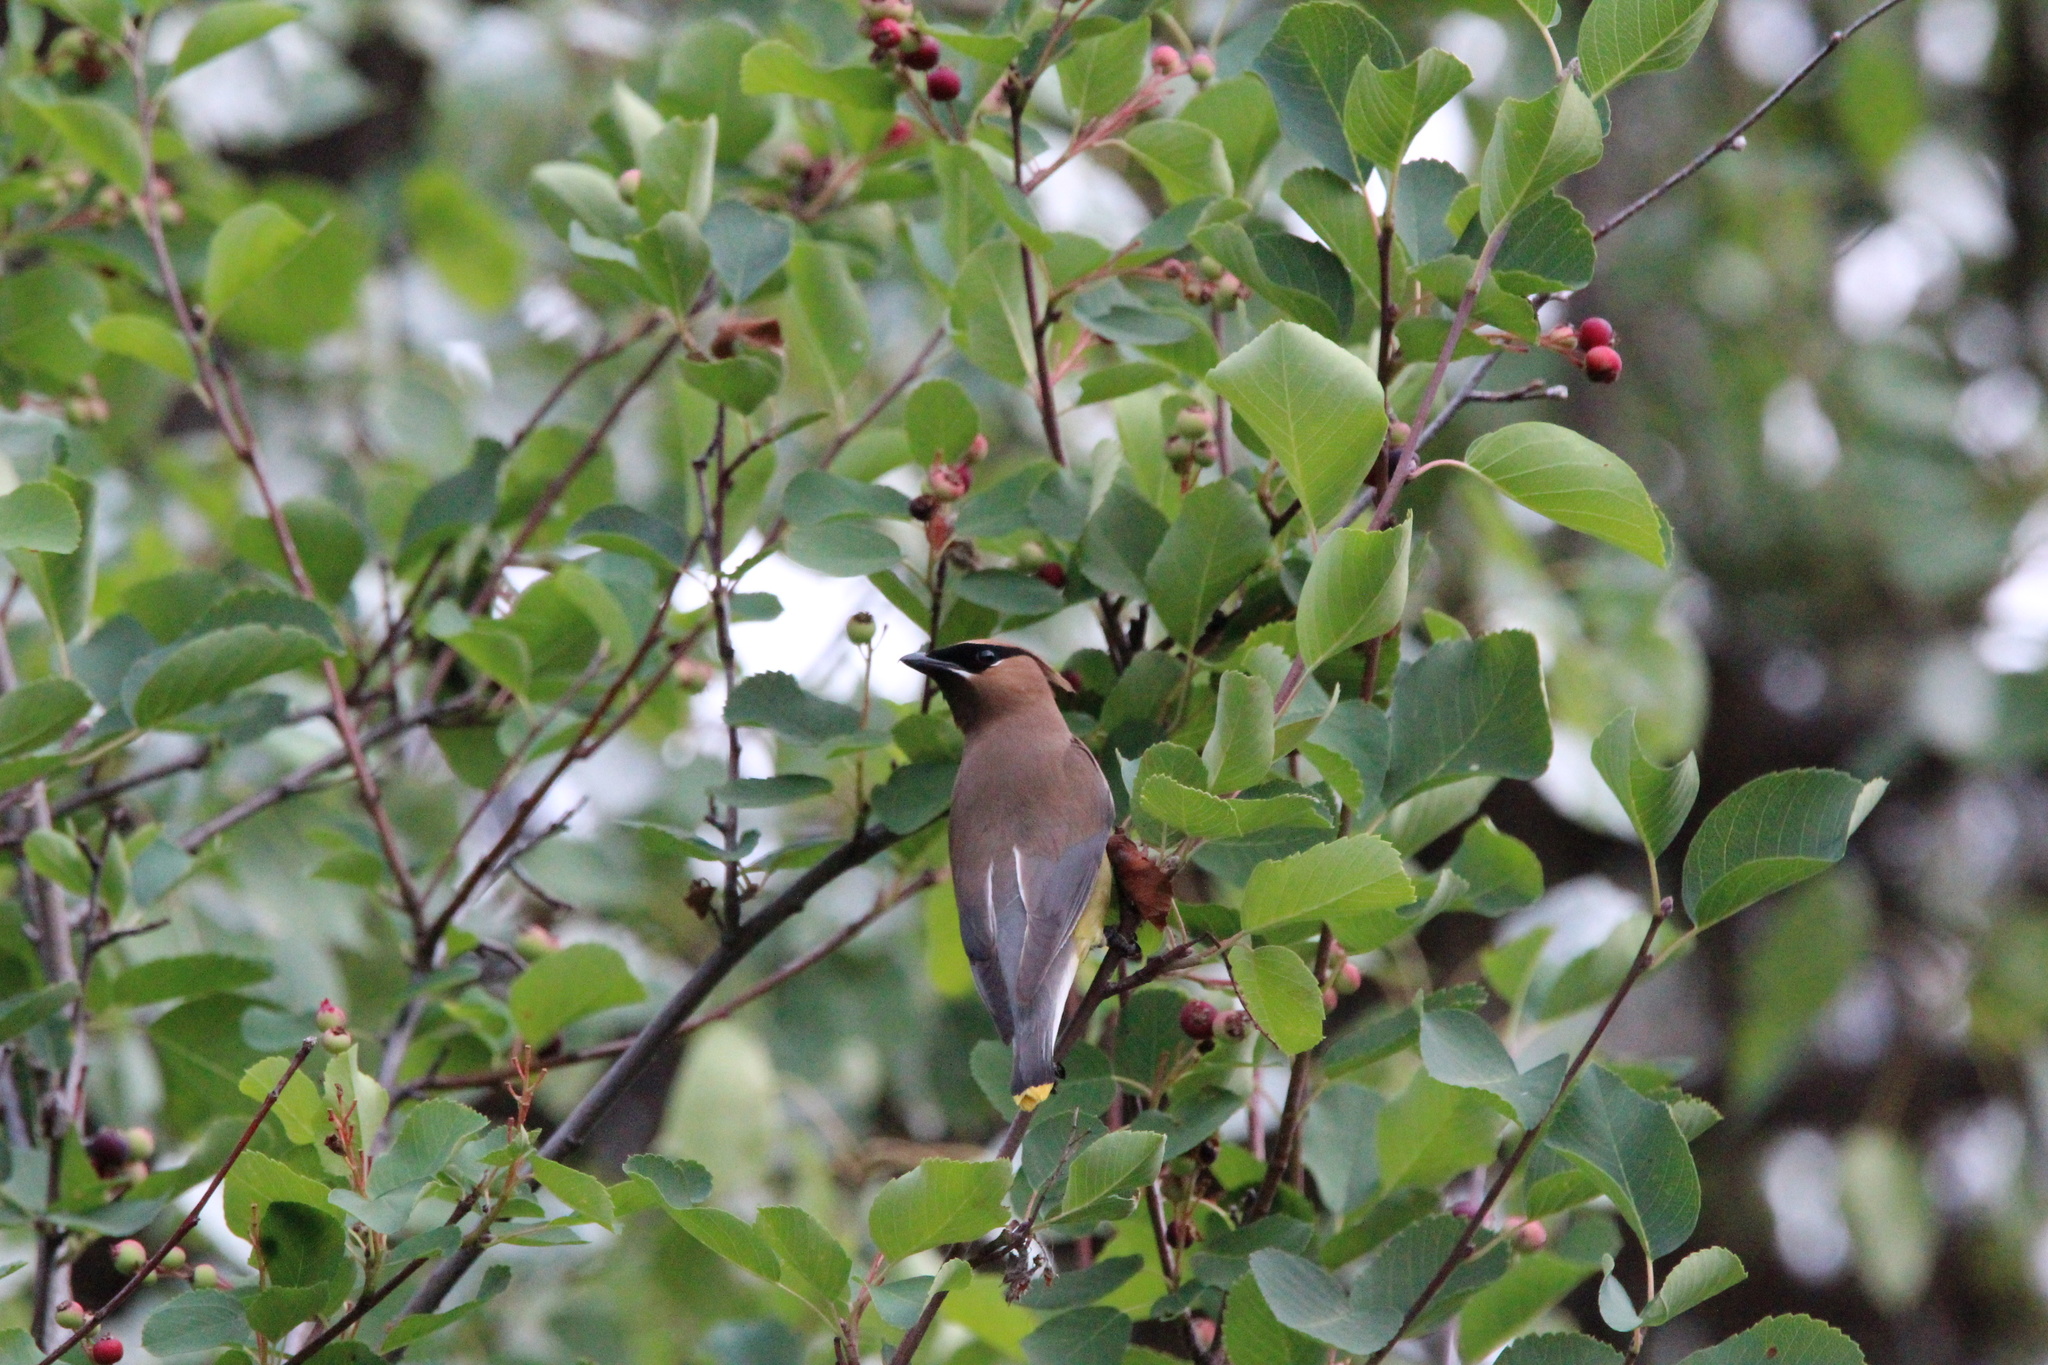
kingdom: Animalia
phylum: Chordata
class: Aves
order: Passeriformes
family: Bombycillidae
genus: Bombycilla
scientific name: Bombycilla cedrorum
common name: Cedar waxwing
